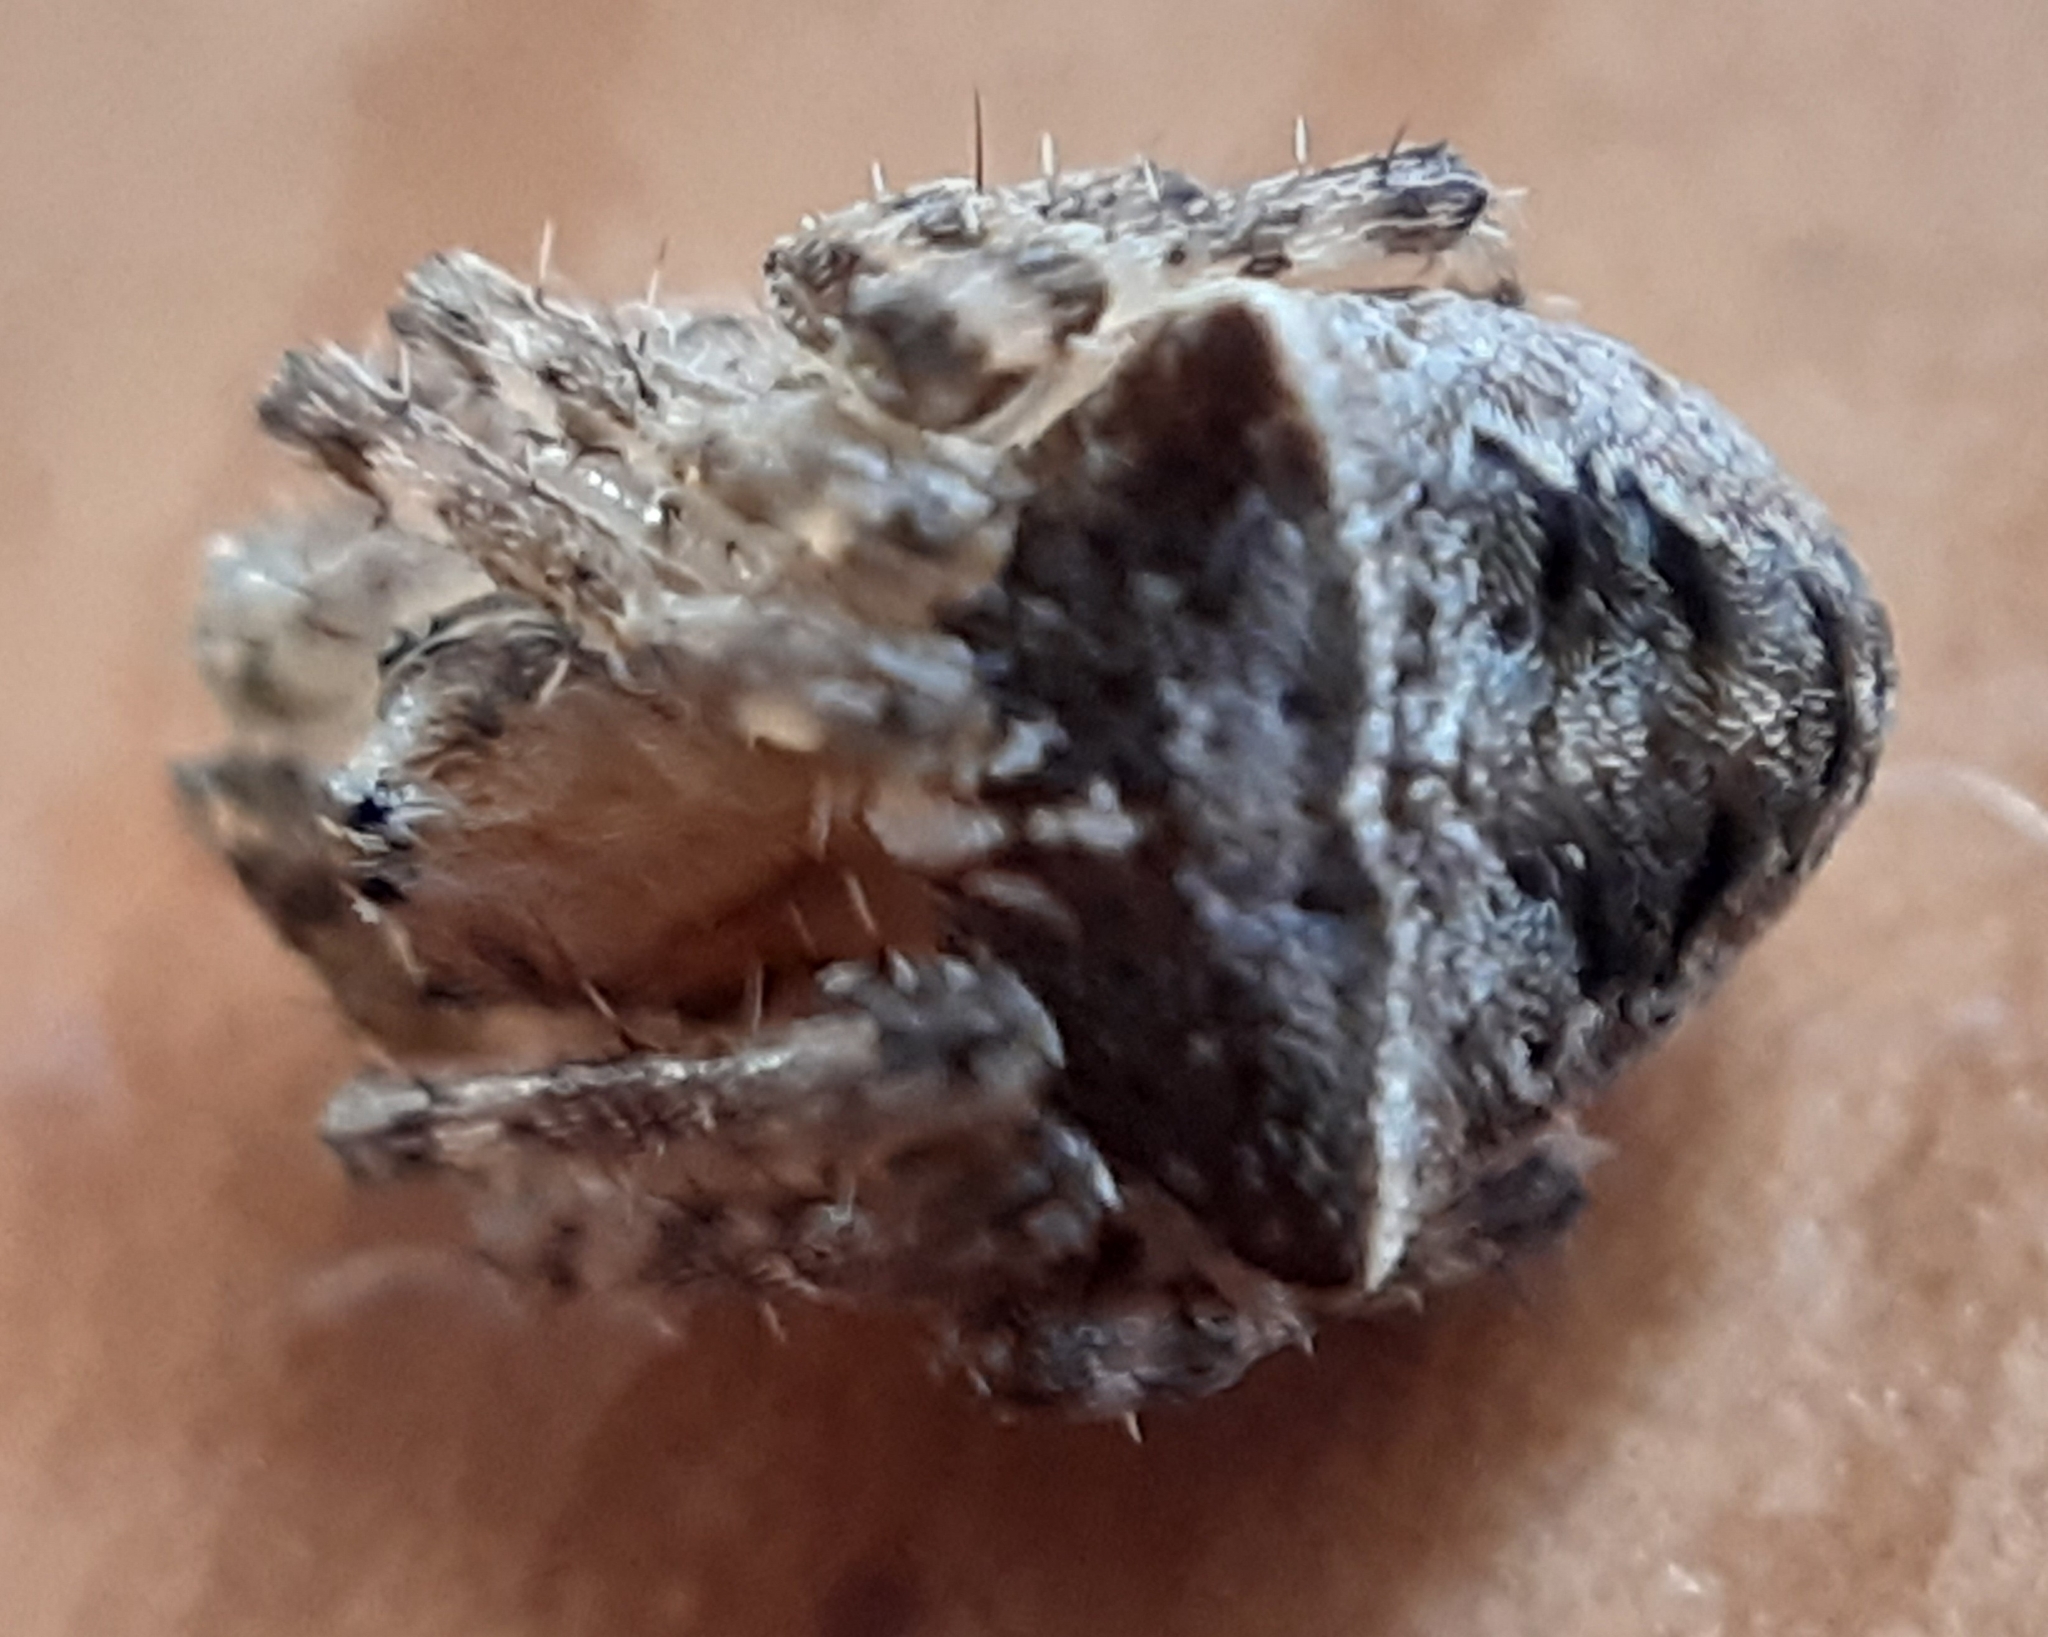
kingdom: Animalia
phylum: Arthropoda
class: Arachnida
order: Araneae
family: Araneidae
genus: Gibbaranea
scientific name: Gibbaranea bituberculata
